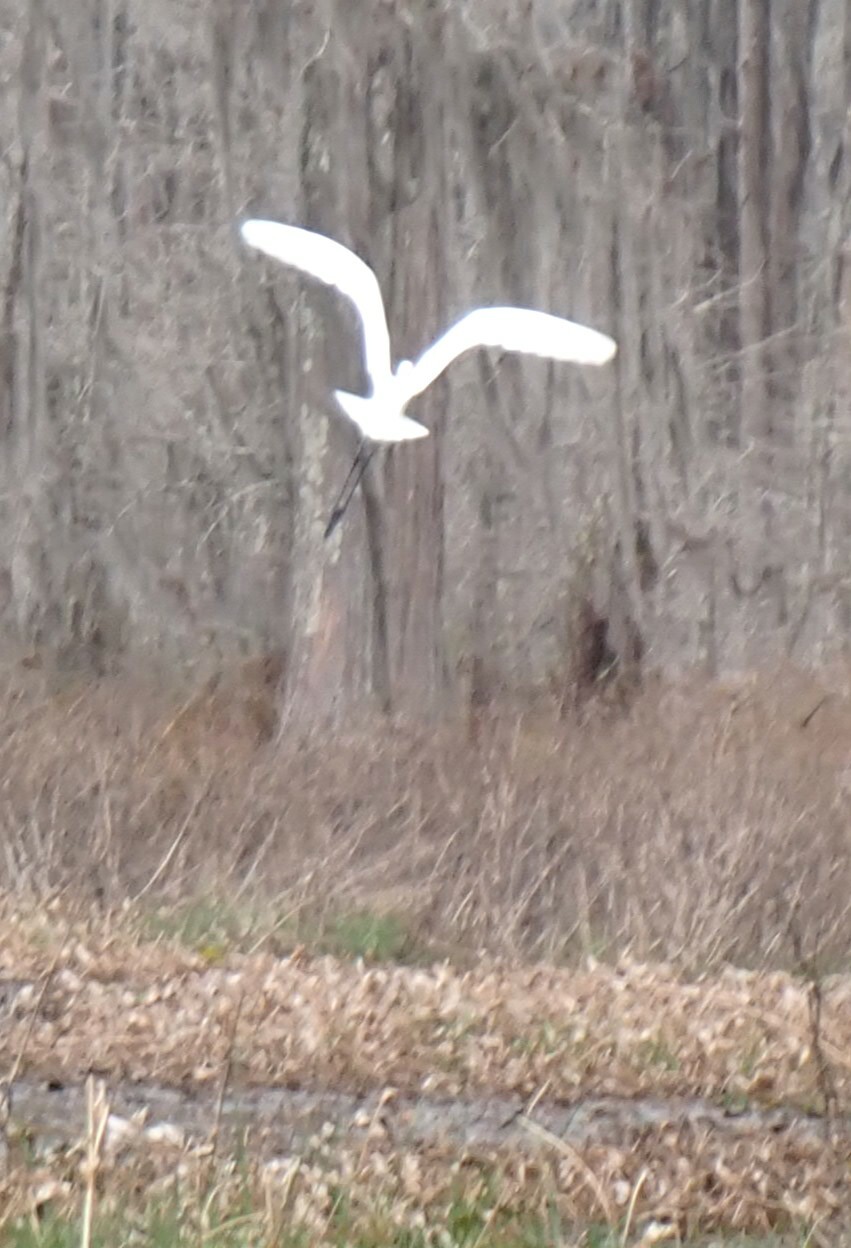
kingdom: Animalia
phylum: Chordata
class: Aves
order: Pelecaniformes
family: Ardeidae
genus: Ardea
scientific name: Ardea alba
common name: Great egret
